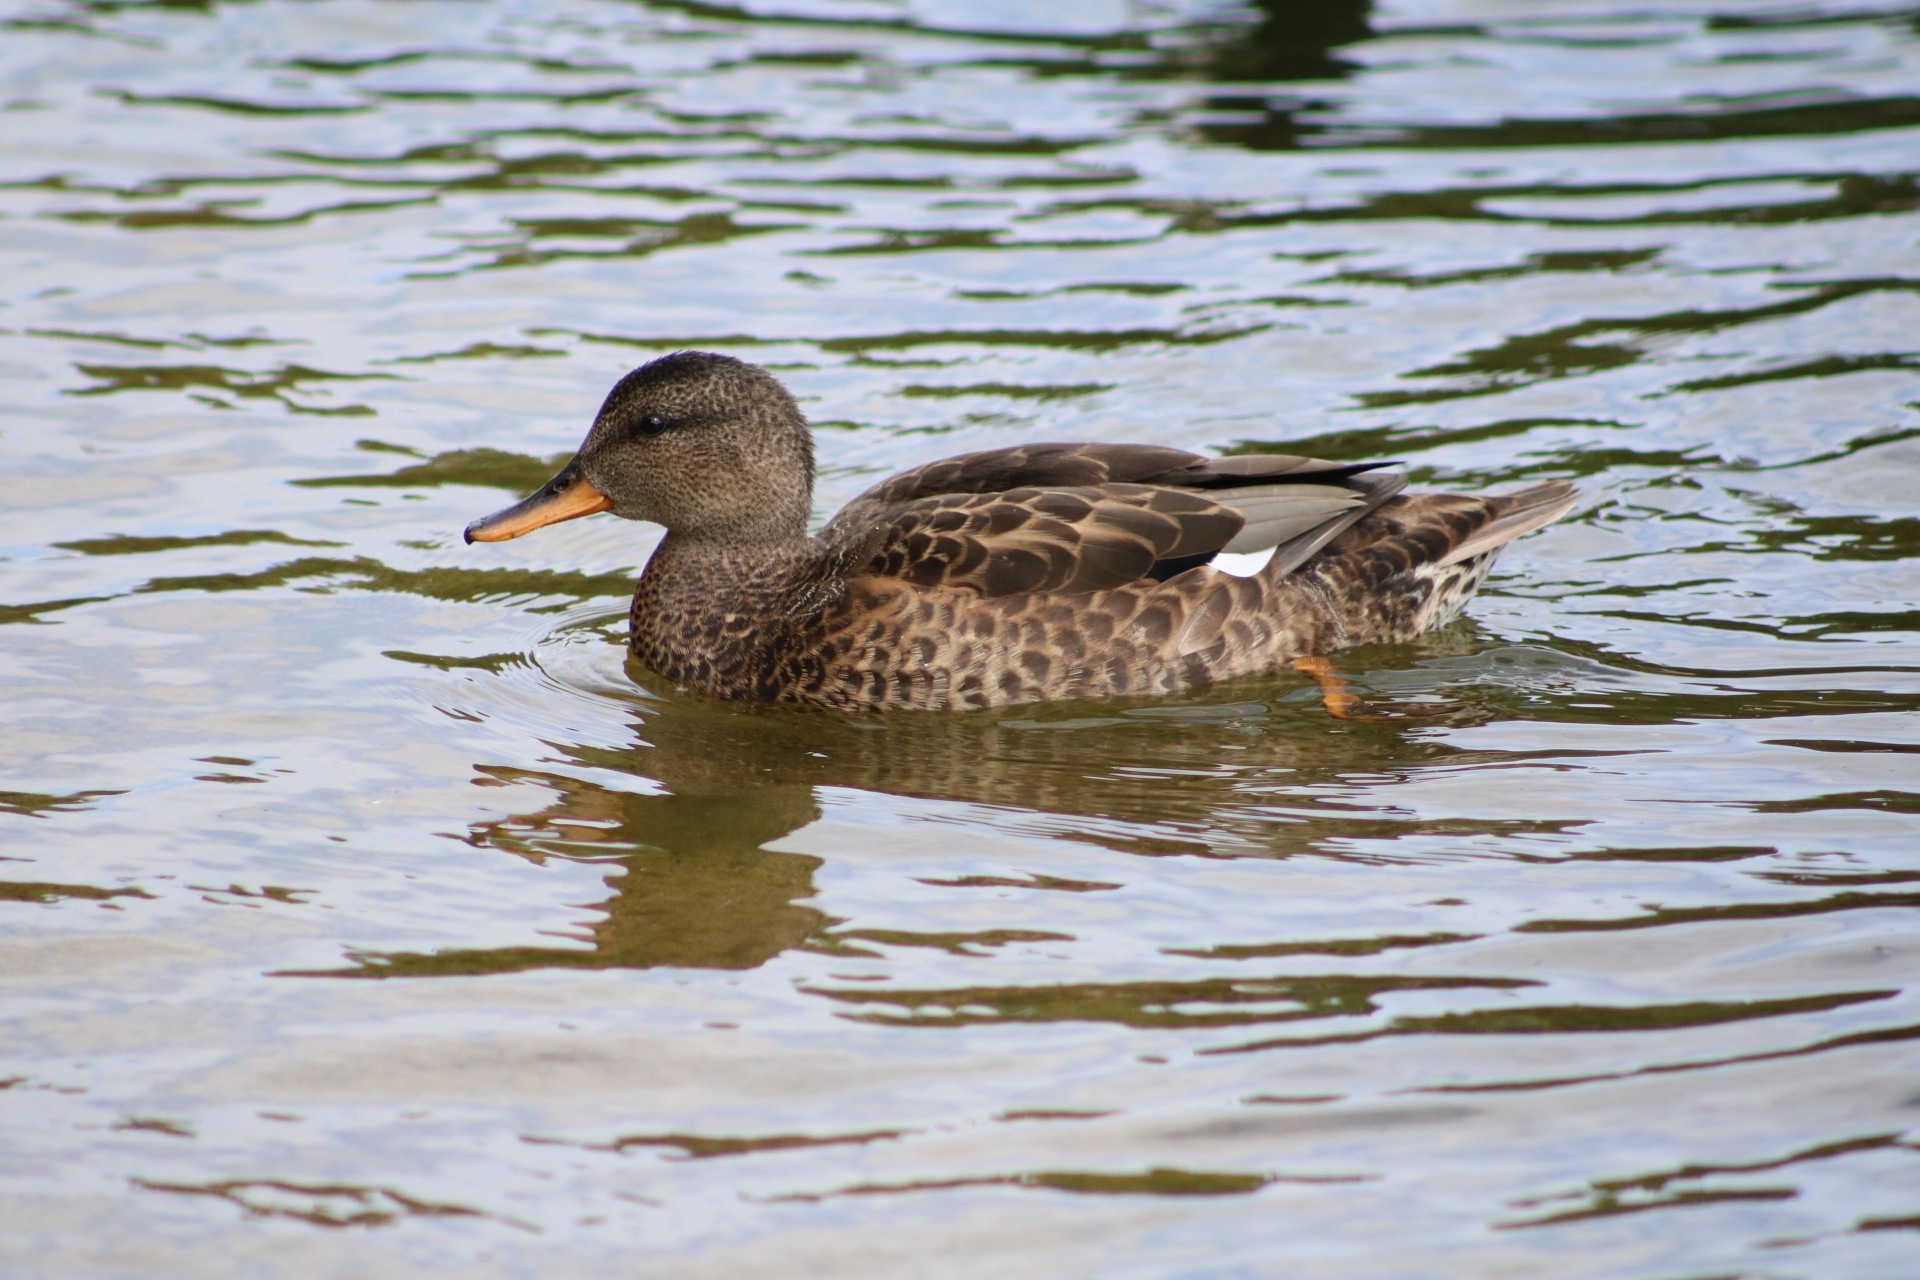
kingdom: Animalia
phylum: Chordata
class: Aves
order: Anseriformes
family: Anatidae
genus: Mareca
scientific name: Mareca strepera
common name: Gadwall
